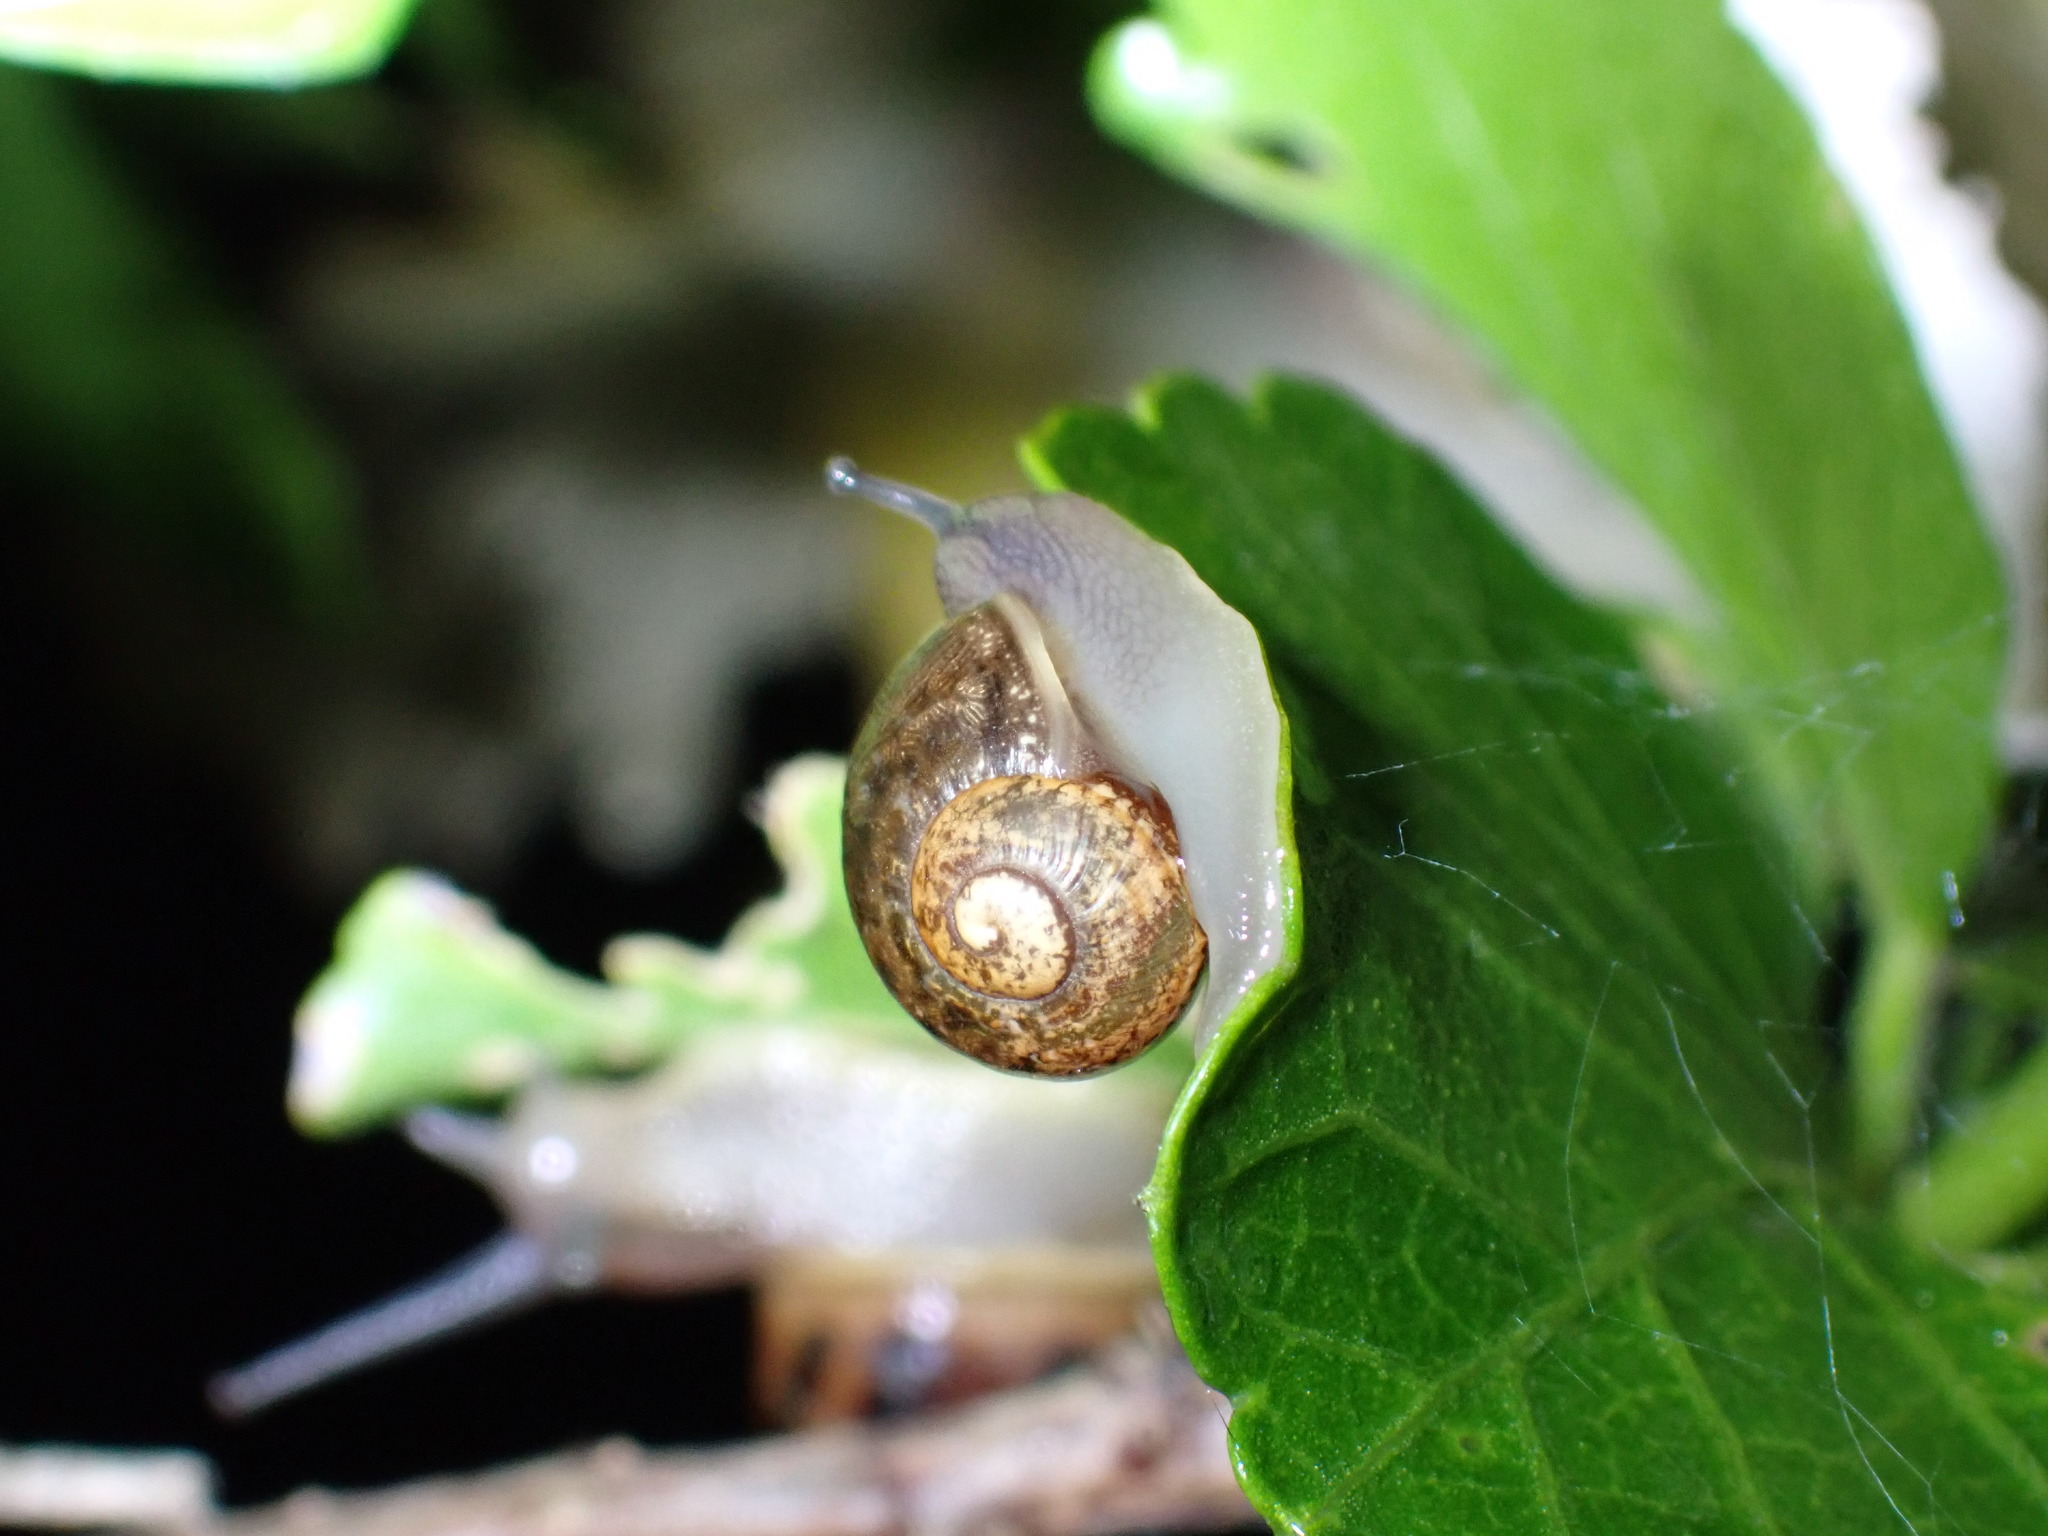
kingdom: Animalia
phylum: Mollusca
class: Gastropoda
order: Stylommatophora
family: Helicidae
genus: Cornu
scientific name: Cornu aspersum
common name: Brown garden snail
